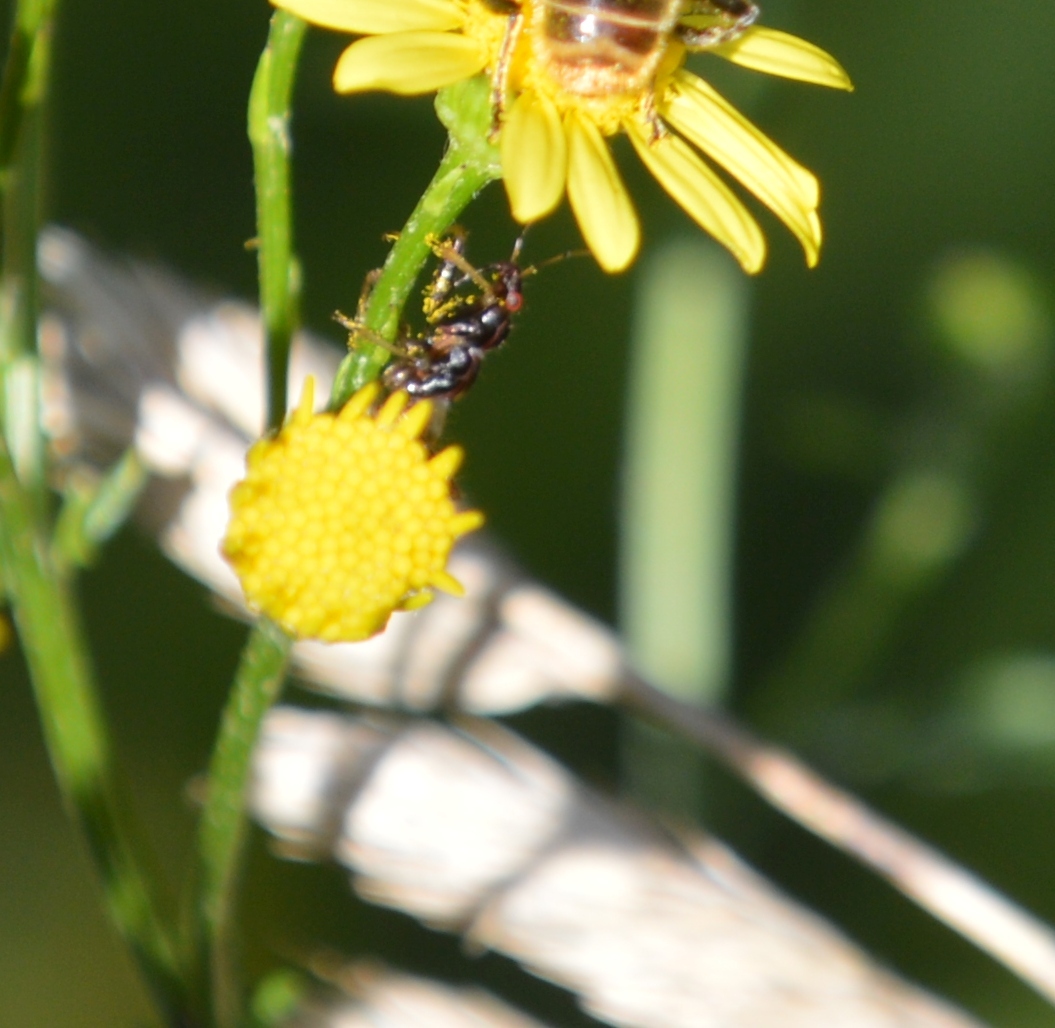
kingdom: Animalia
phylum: Arthropoda
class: Insecta
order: Hemiptera
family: Nabidae
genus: Himacerus
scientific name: Himacerus mirmicoides
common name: Ant damsel bug
